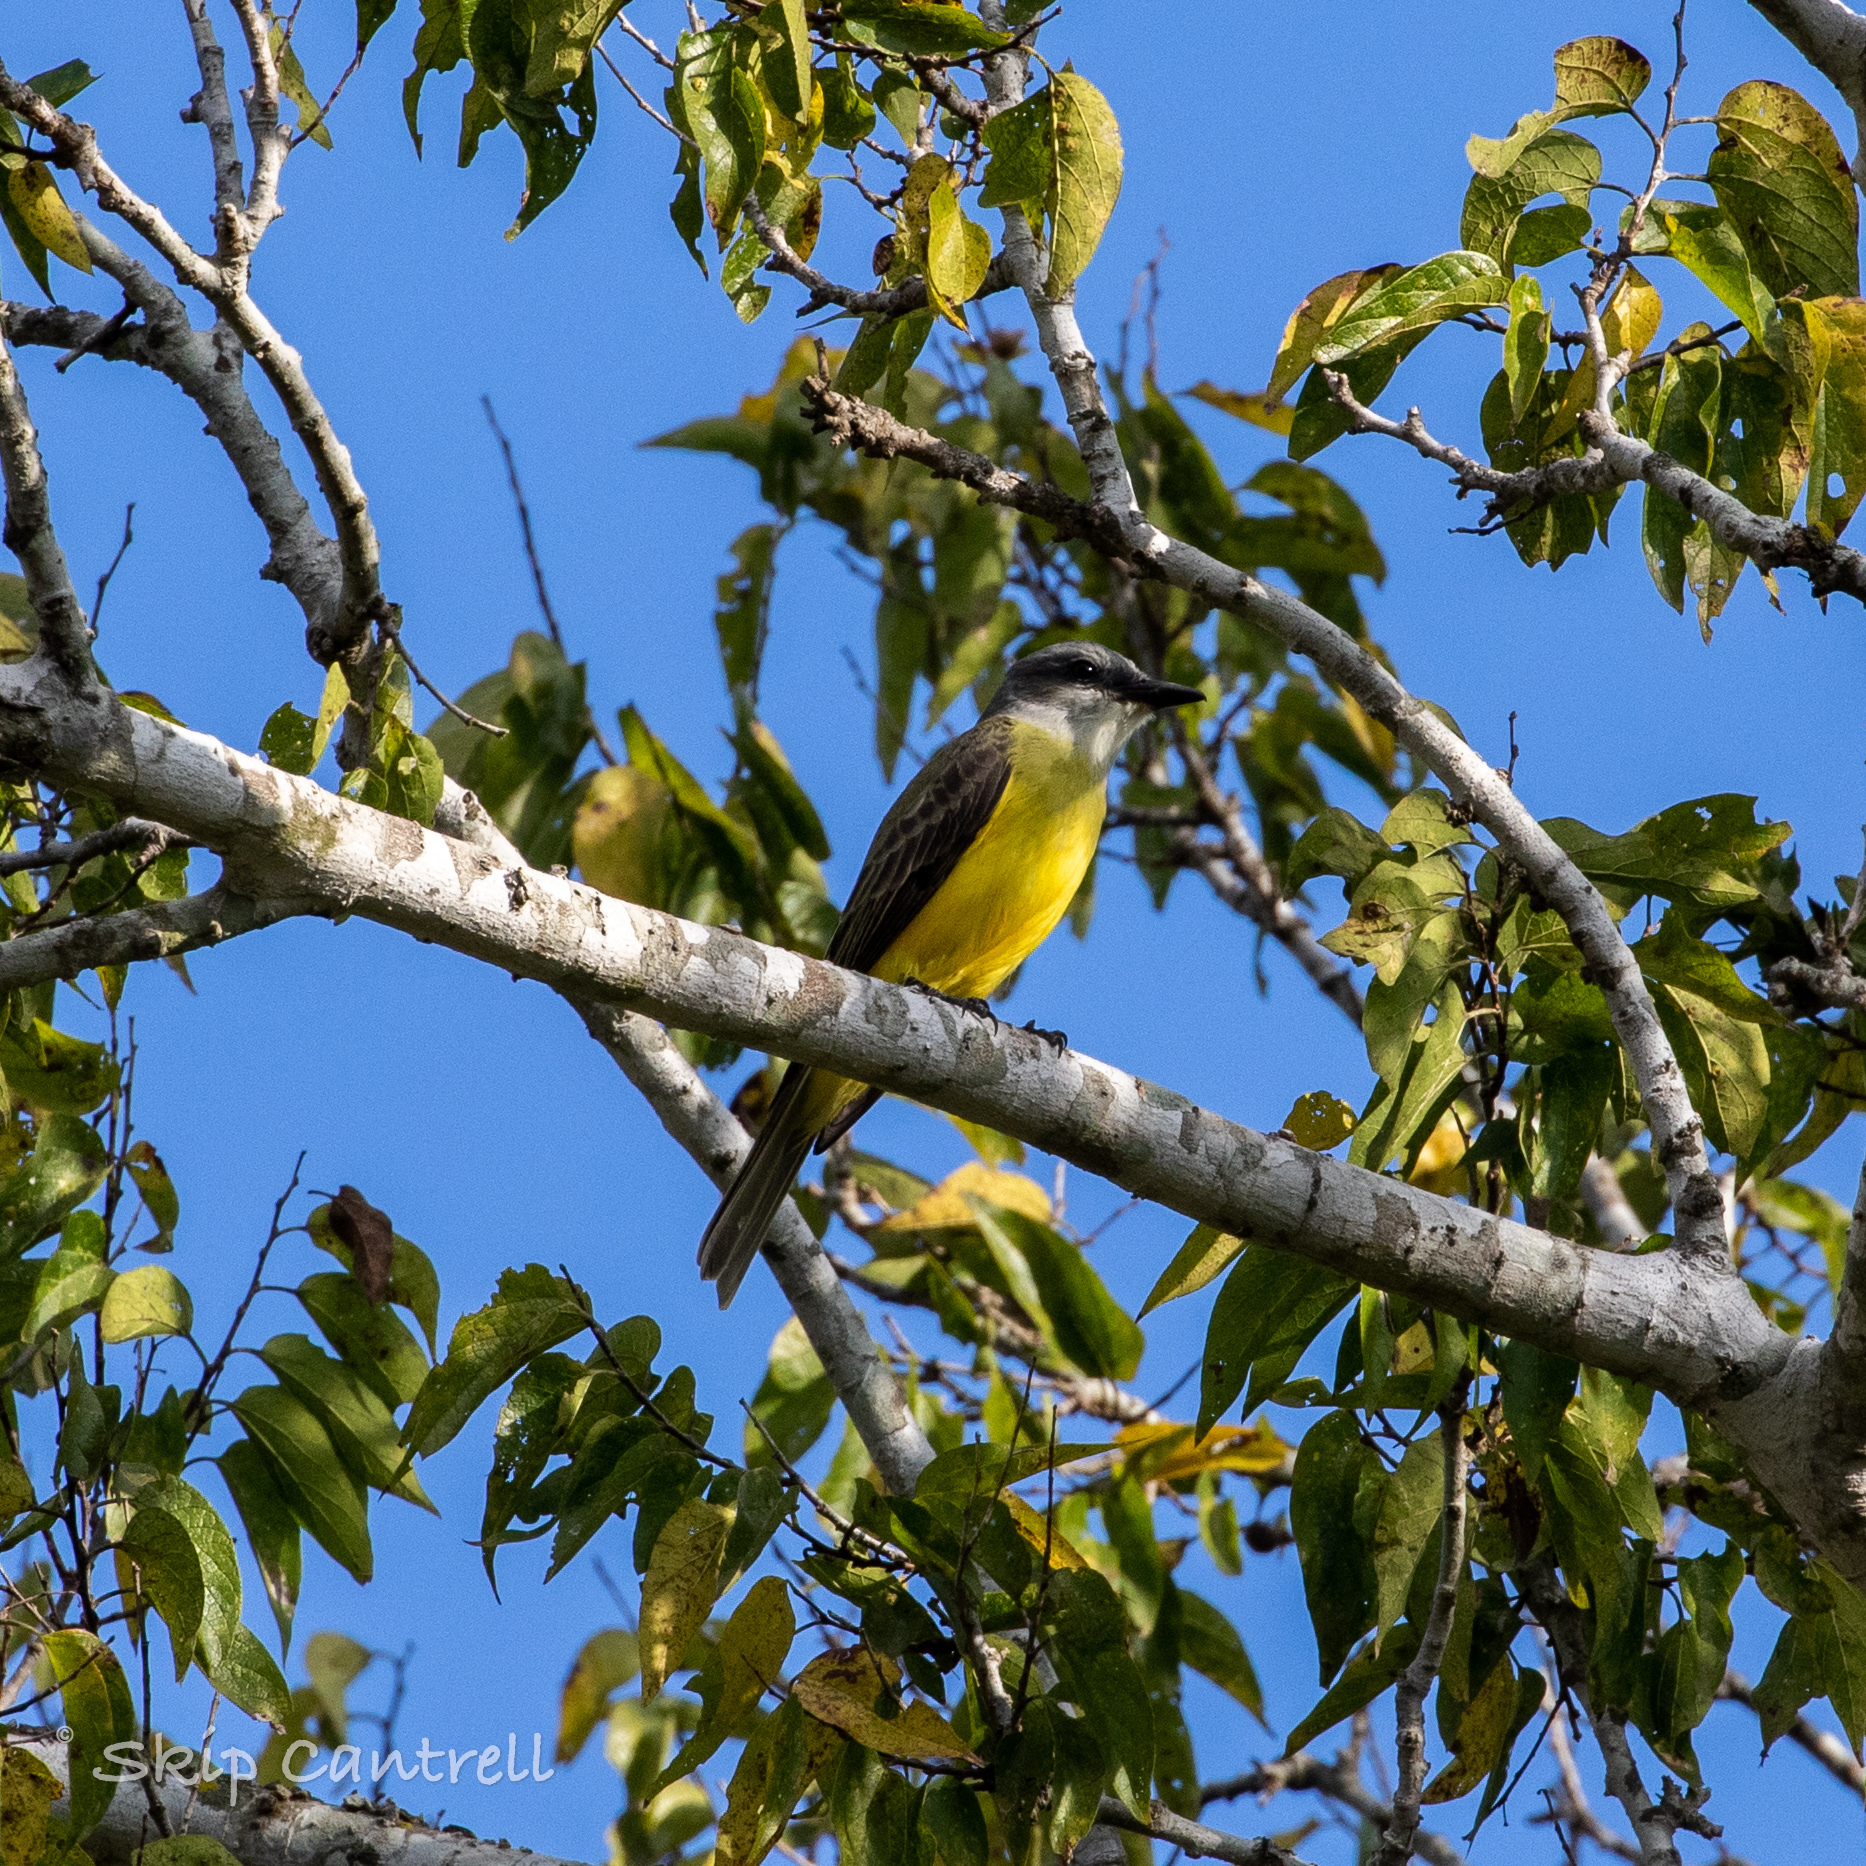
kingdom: Animalia
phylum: Chordata
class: Aves
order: Passeriformes
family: Tyrannidae
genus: Tyrannus
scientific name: Tyrannus couchii
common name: Couch's kingbird
